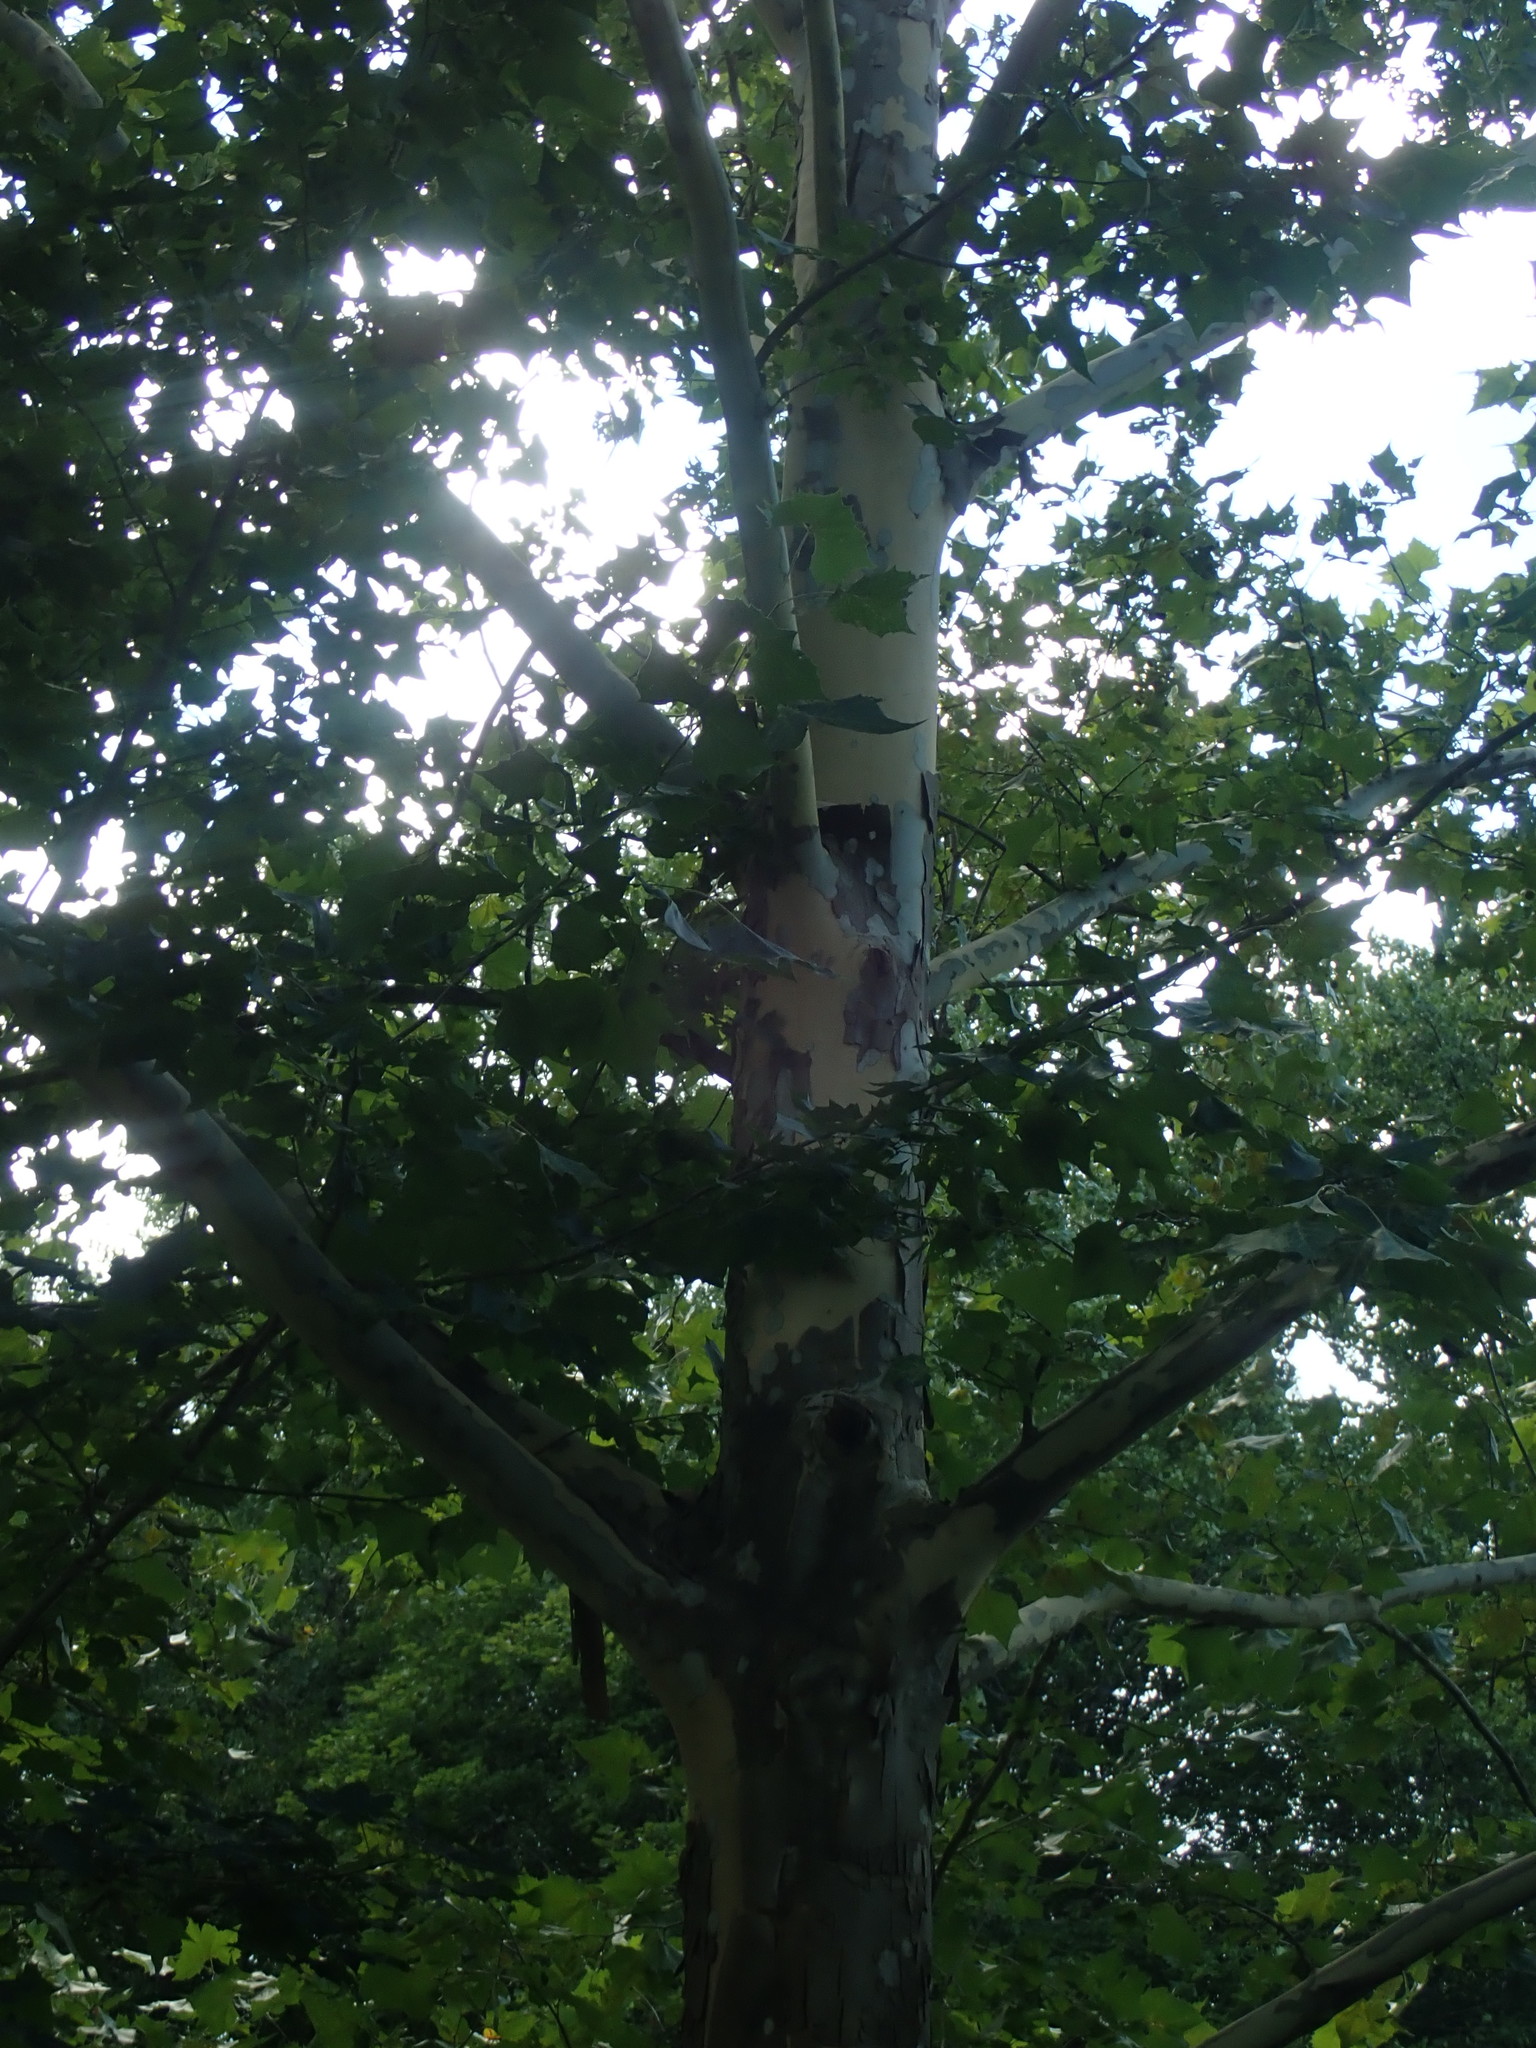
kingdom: Plantae
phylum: Tracheophyta
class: Magnoliopsida
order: Proteales
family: Platanaceae
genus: Platanus
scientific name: Platanus occidentalis
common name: American sycamore
